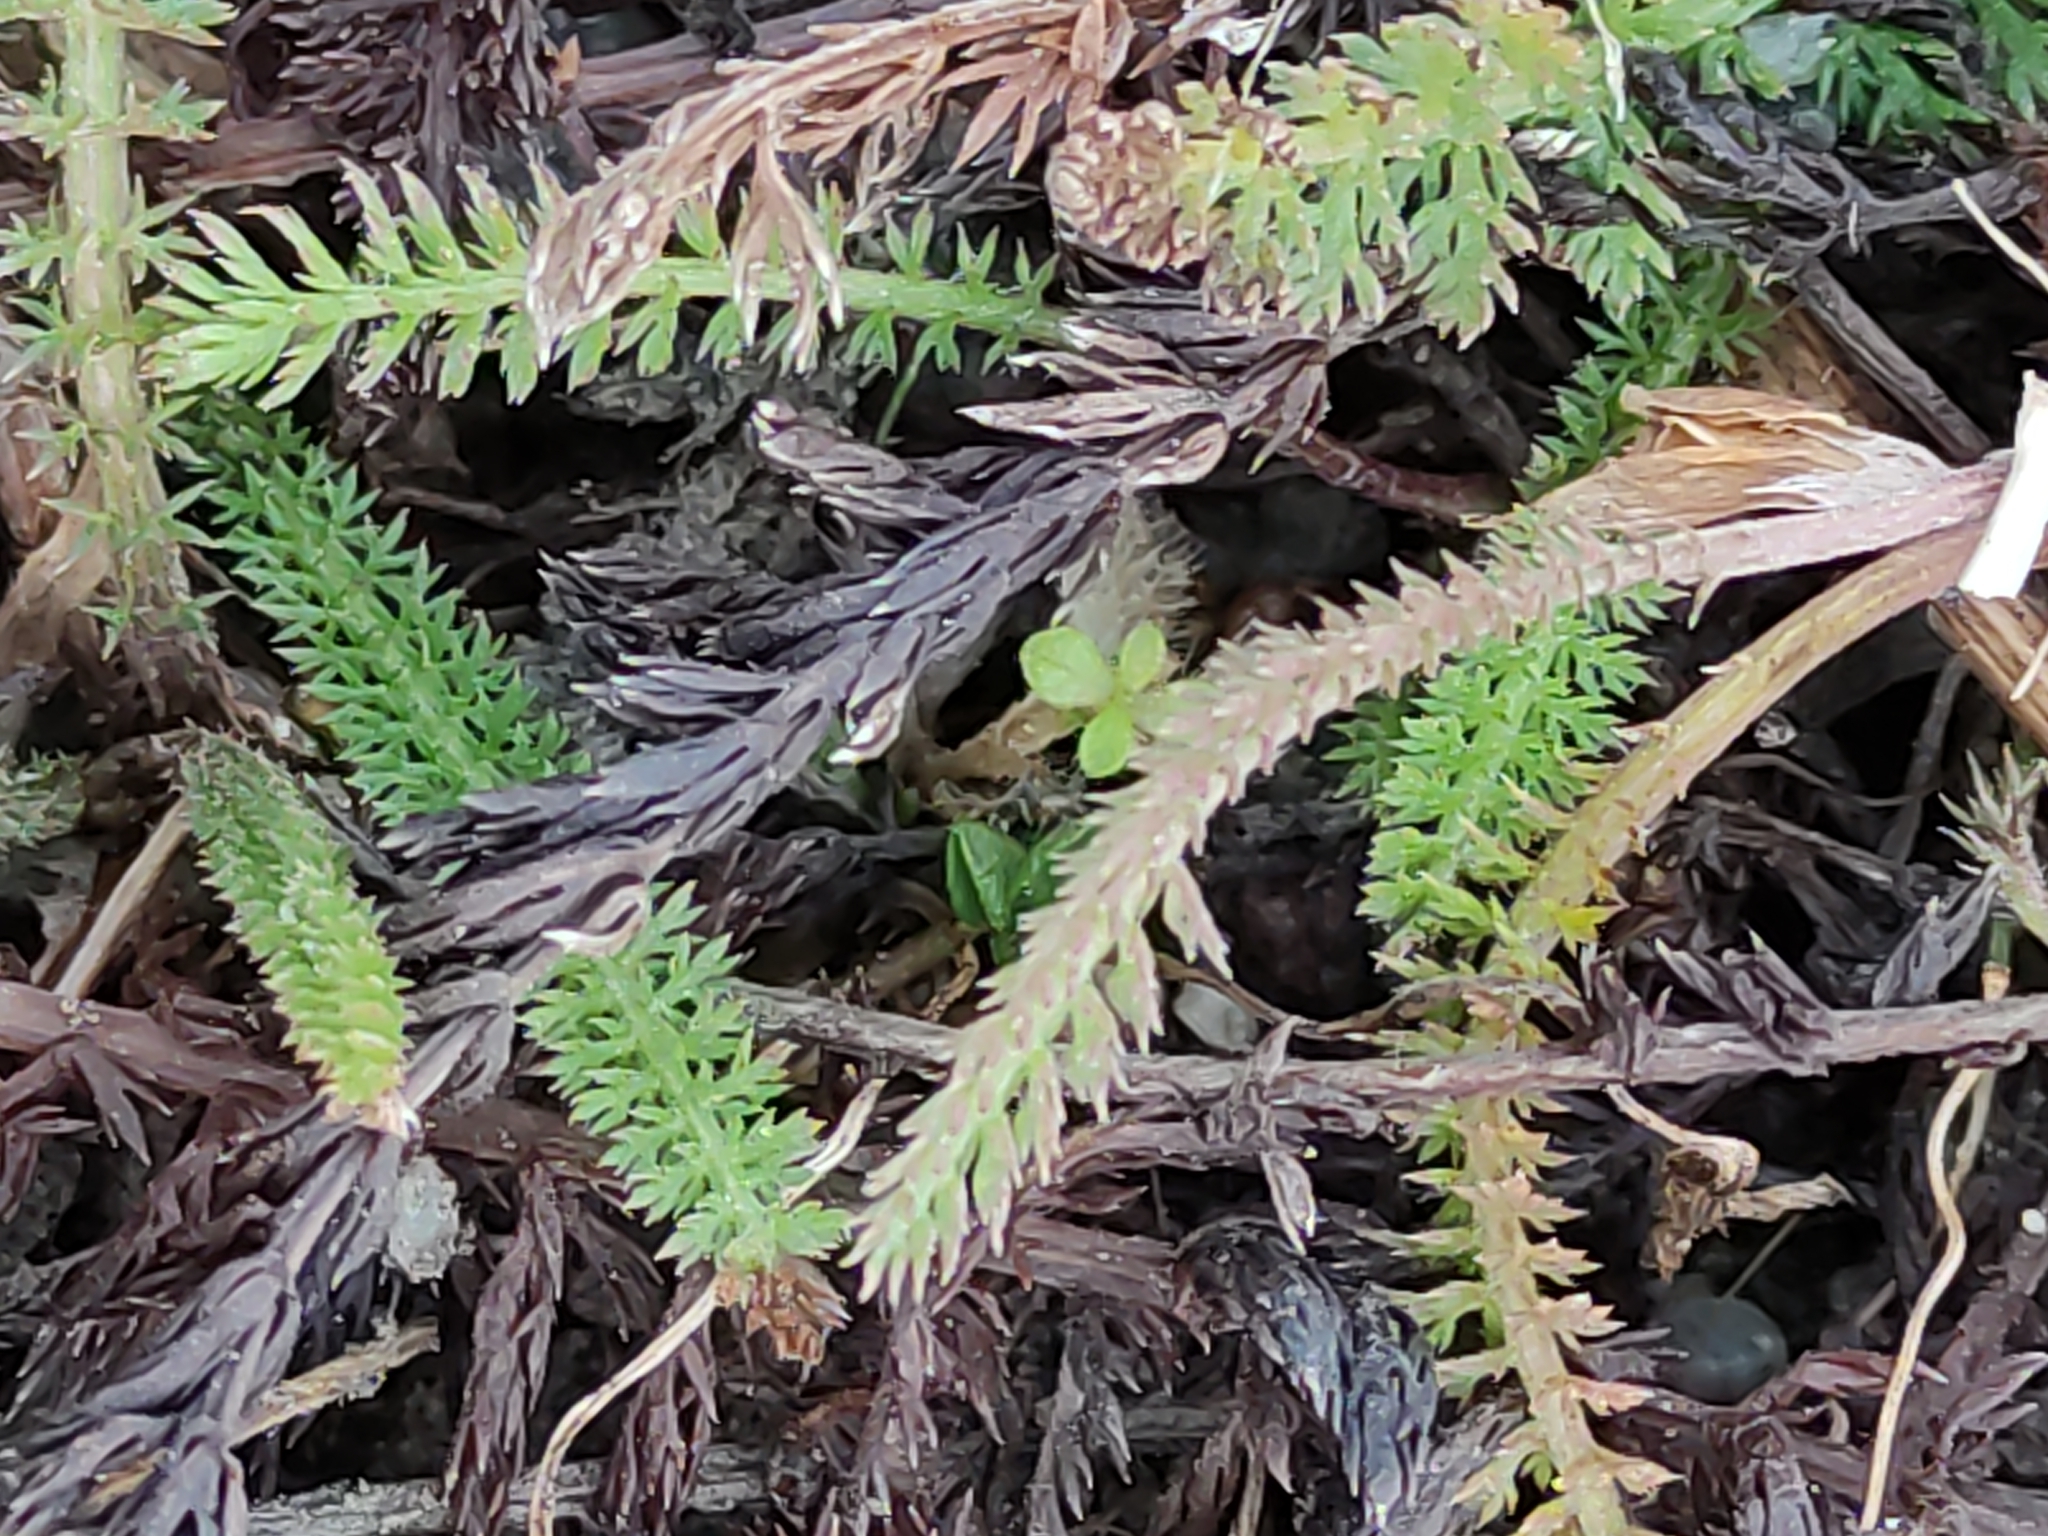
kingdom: Plantae
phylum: Tracheophyta
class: Magnoliopsida
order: Asterales
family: Asteraceae
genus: Achillea
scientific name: Achillea millefolium
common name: Yarrow
